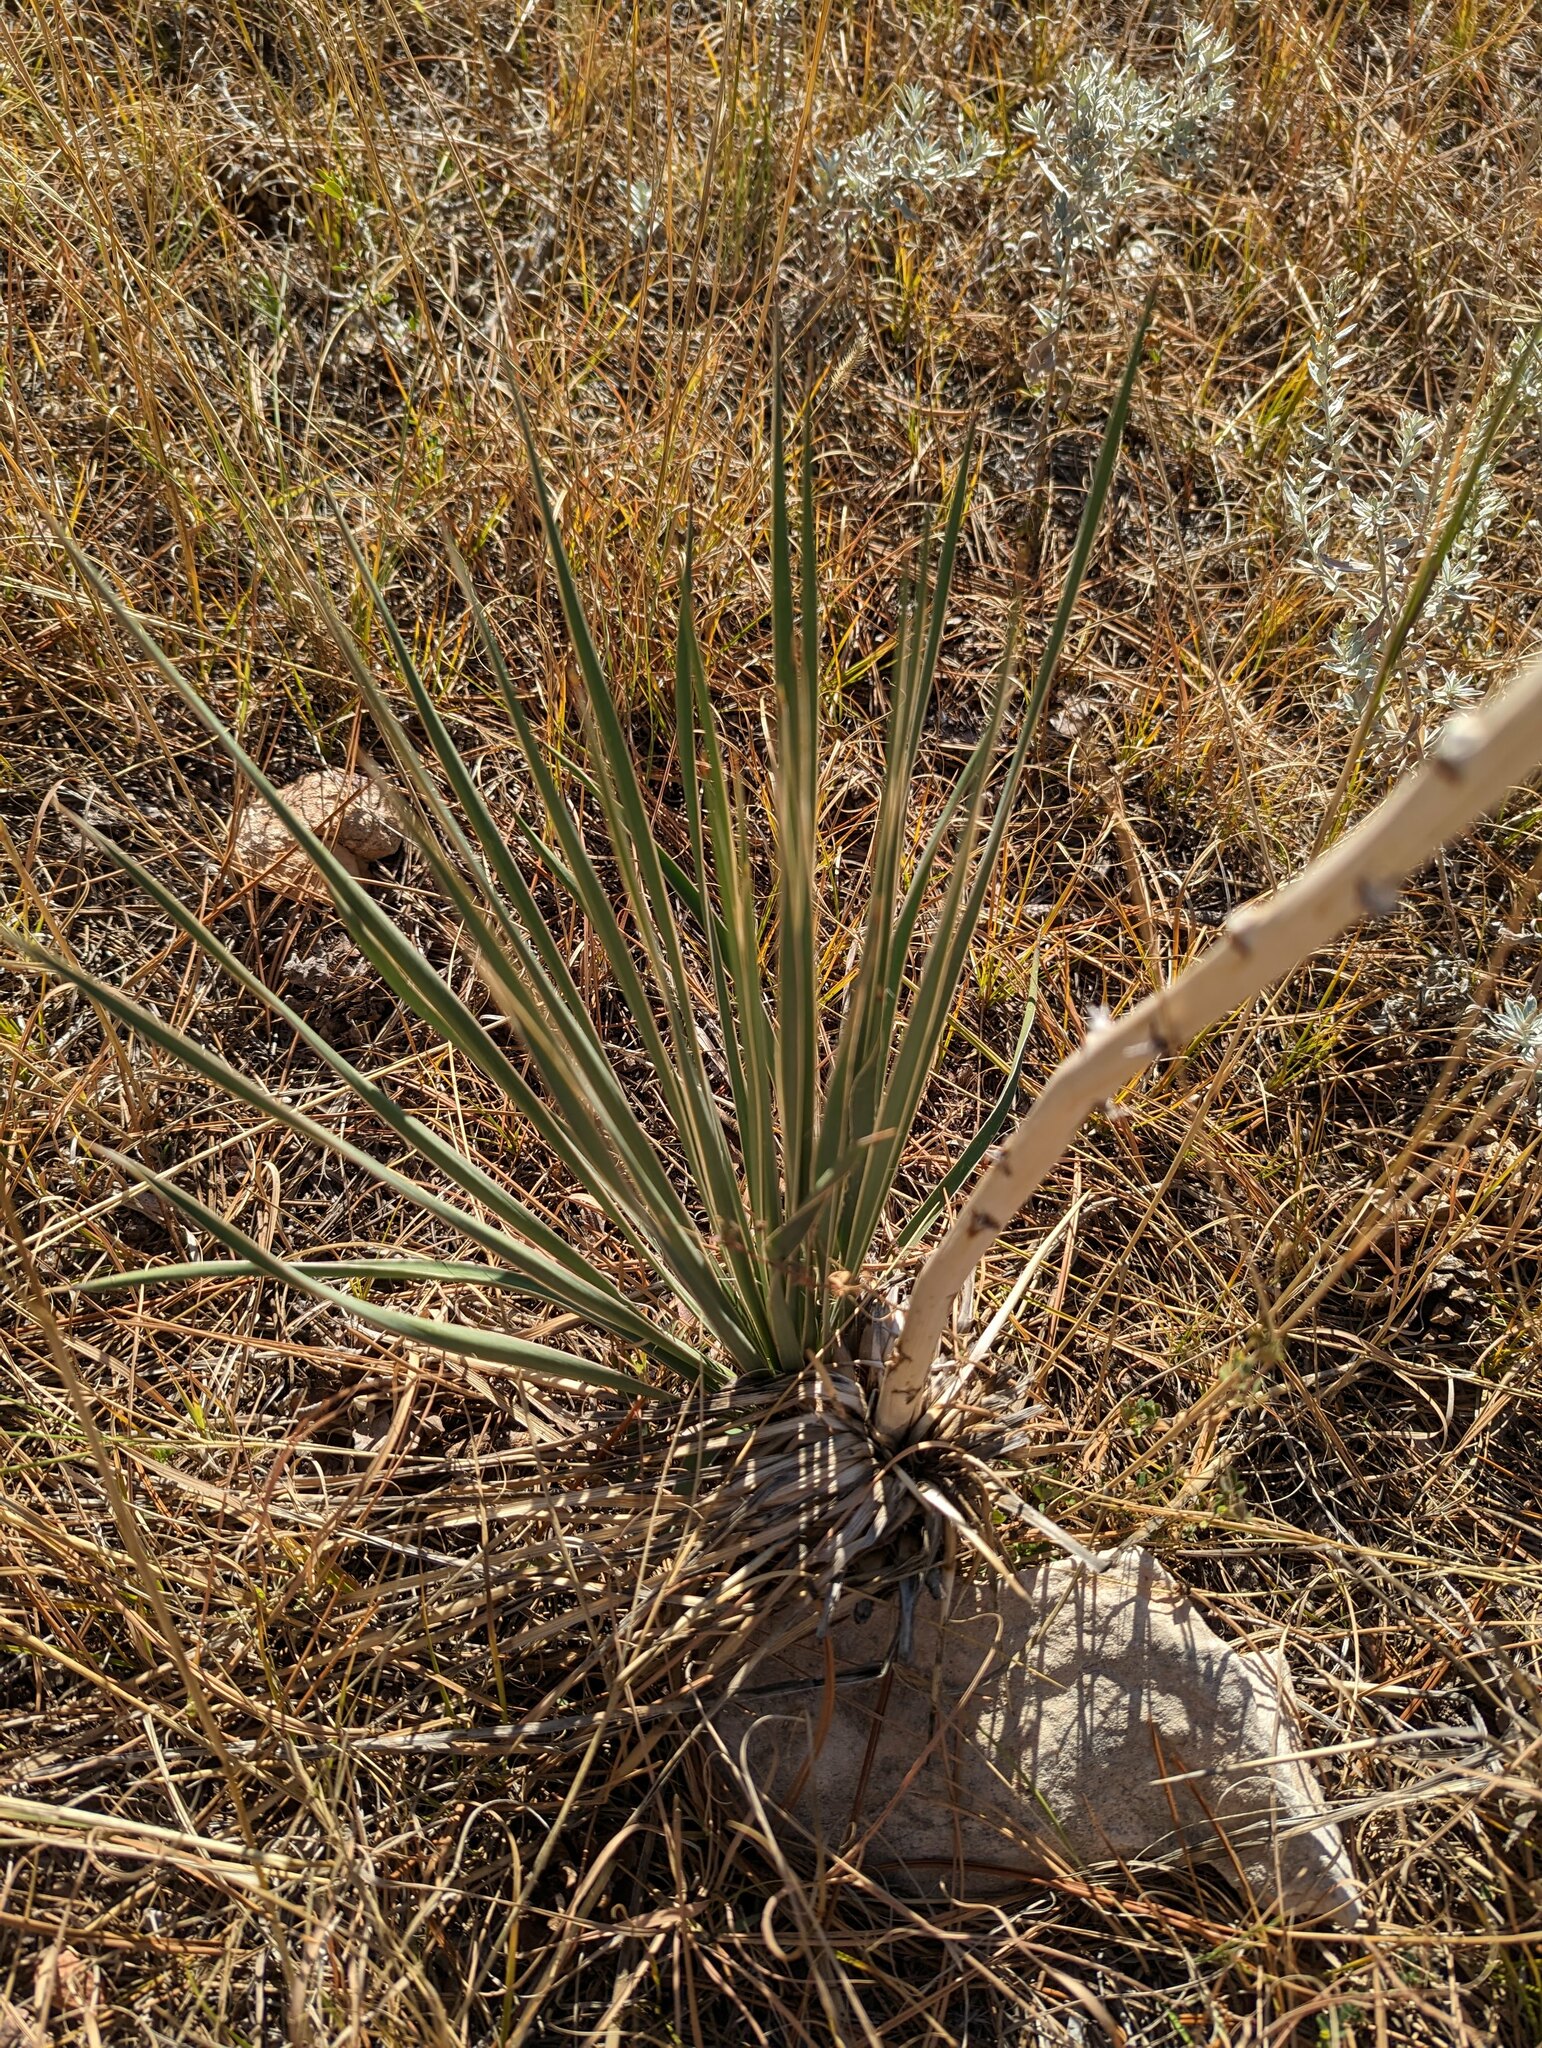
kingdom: Plantae
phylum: Tracheophyta
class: Liliopsida
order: Asparagales
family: Asparagaceae
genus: Yucca
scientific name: Yucca glauca
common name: Great plains yucca
